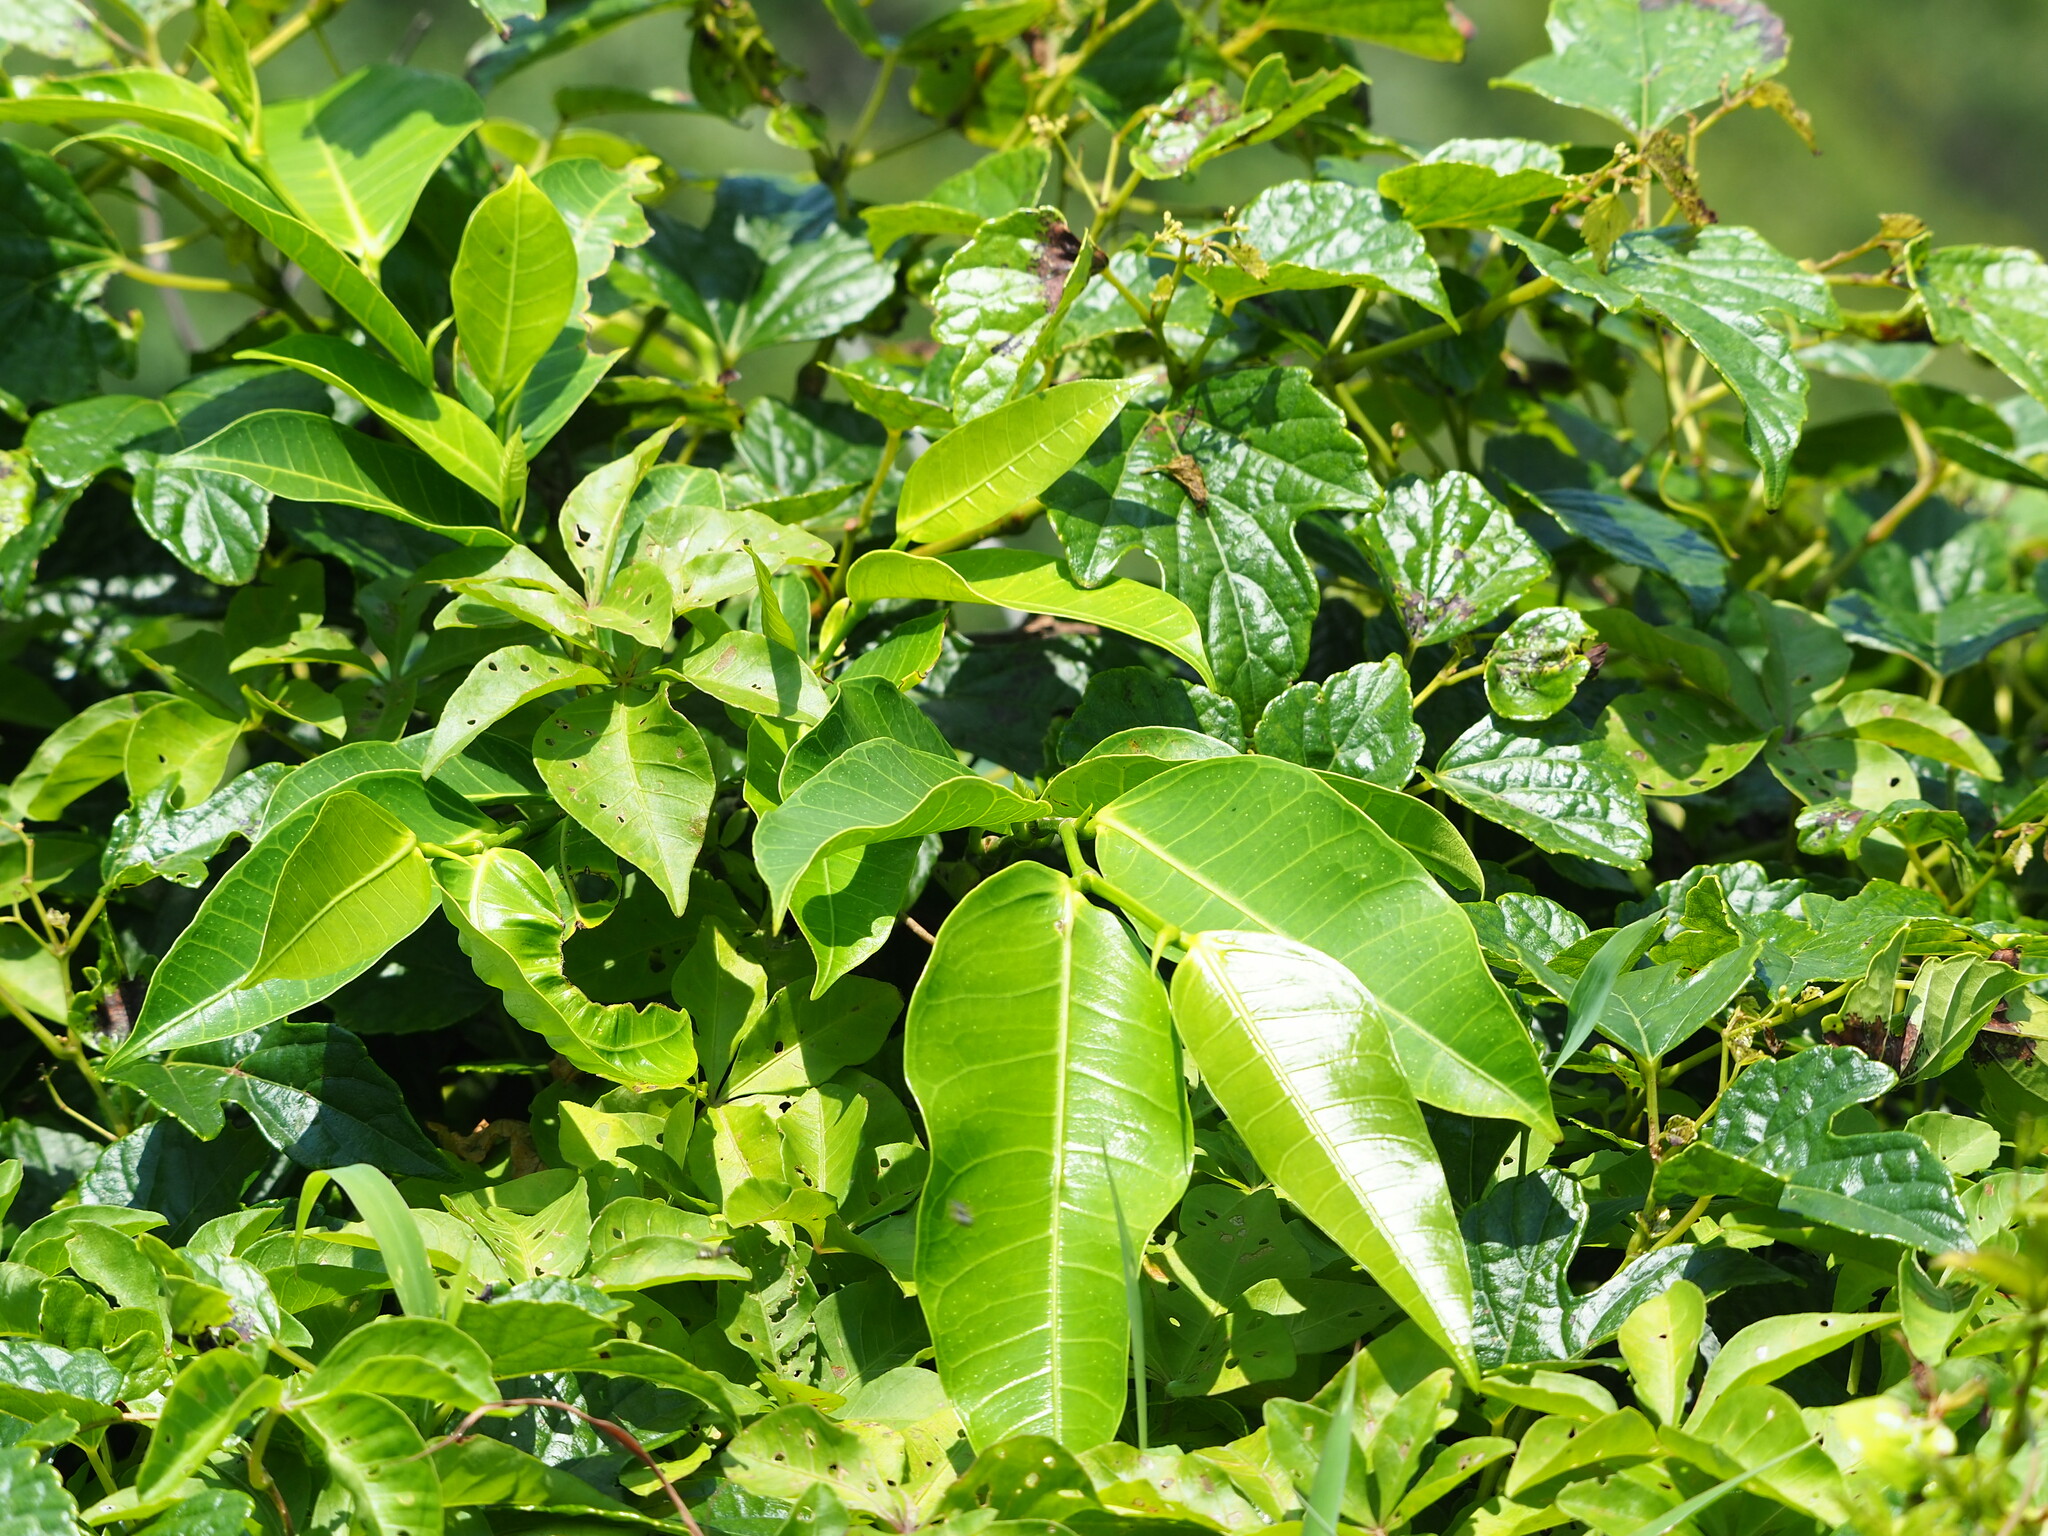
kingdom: Plantae
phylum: Tracheophyta
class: Magnoliopsida
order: Rosales
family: Moraceae
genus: Ficus
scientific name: Ficus virgata
